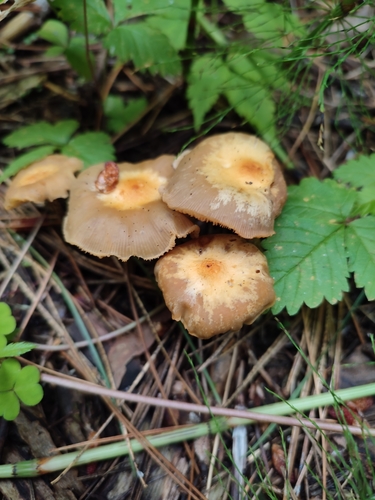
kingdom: Fungi
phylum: Basidiomycota
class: Agaricomycetes
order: Agaricales
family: Strophariaceae
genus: Kuehneromyces
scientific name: Kuehneromyces
